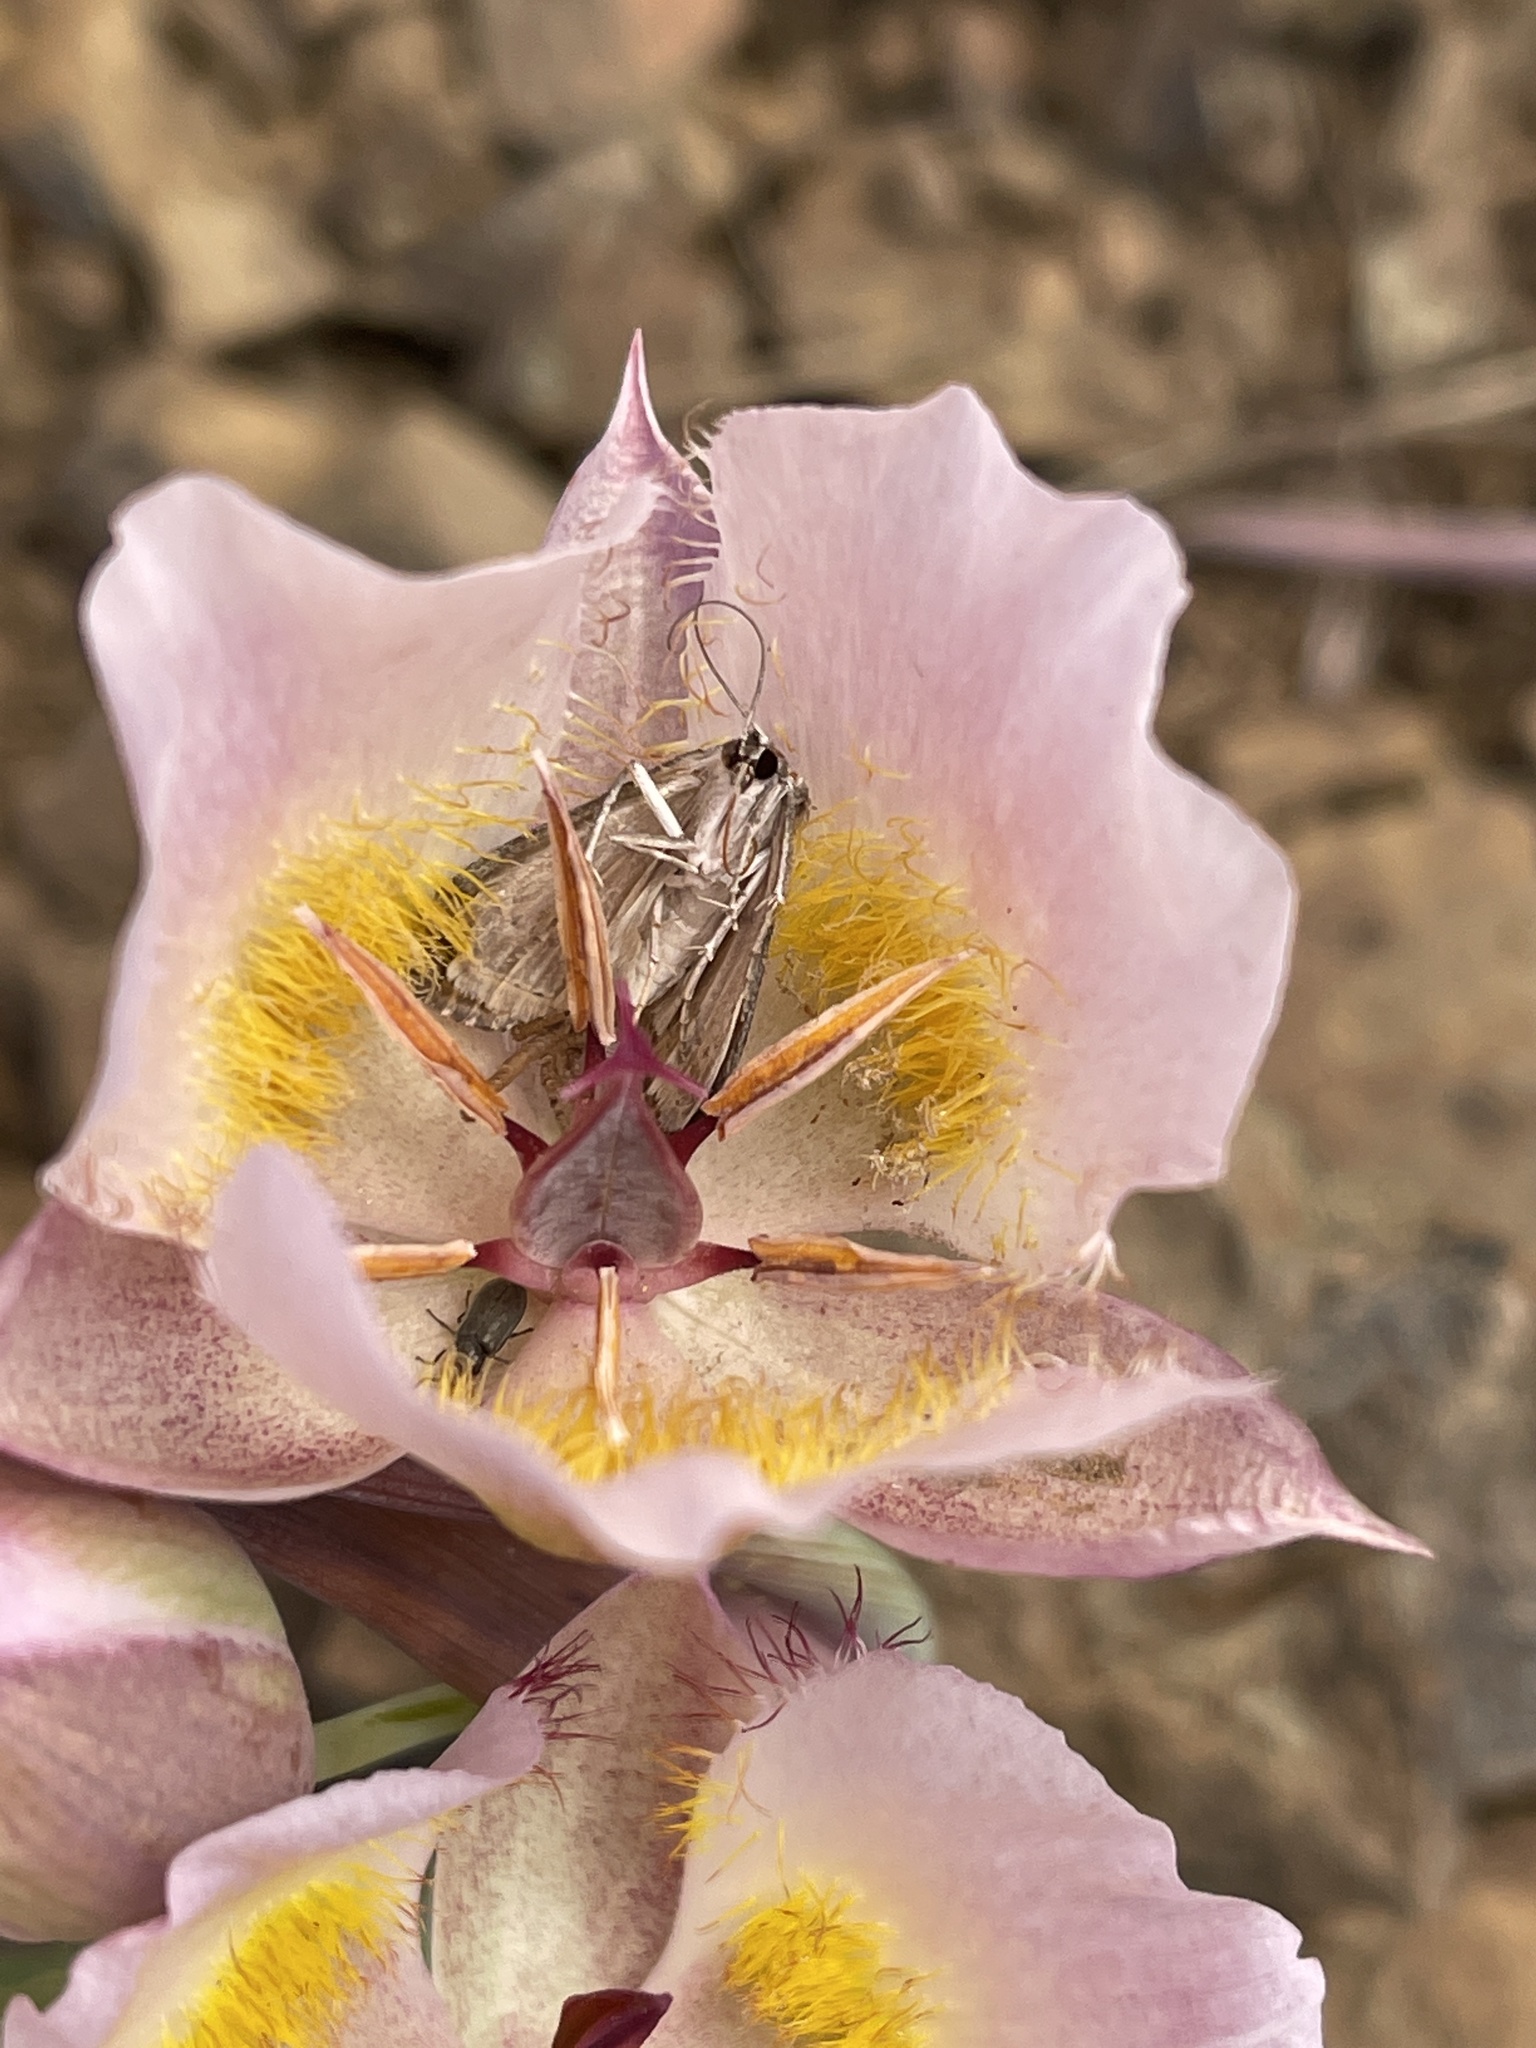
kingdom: Plantae
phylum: Tracheophyta
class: Liliopsida
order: Liliales
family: Liliaceae
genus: Calochortus
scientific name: Calochortus persistens
